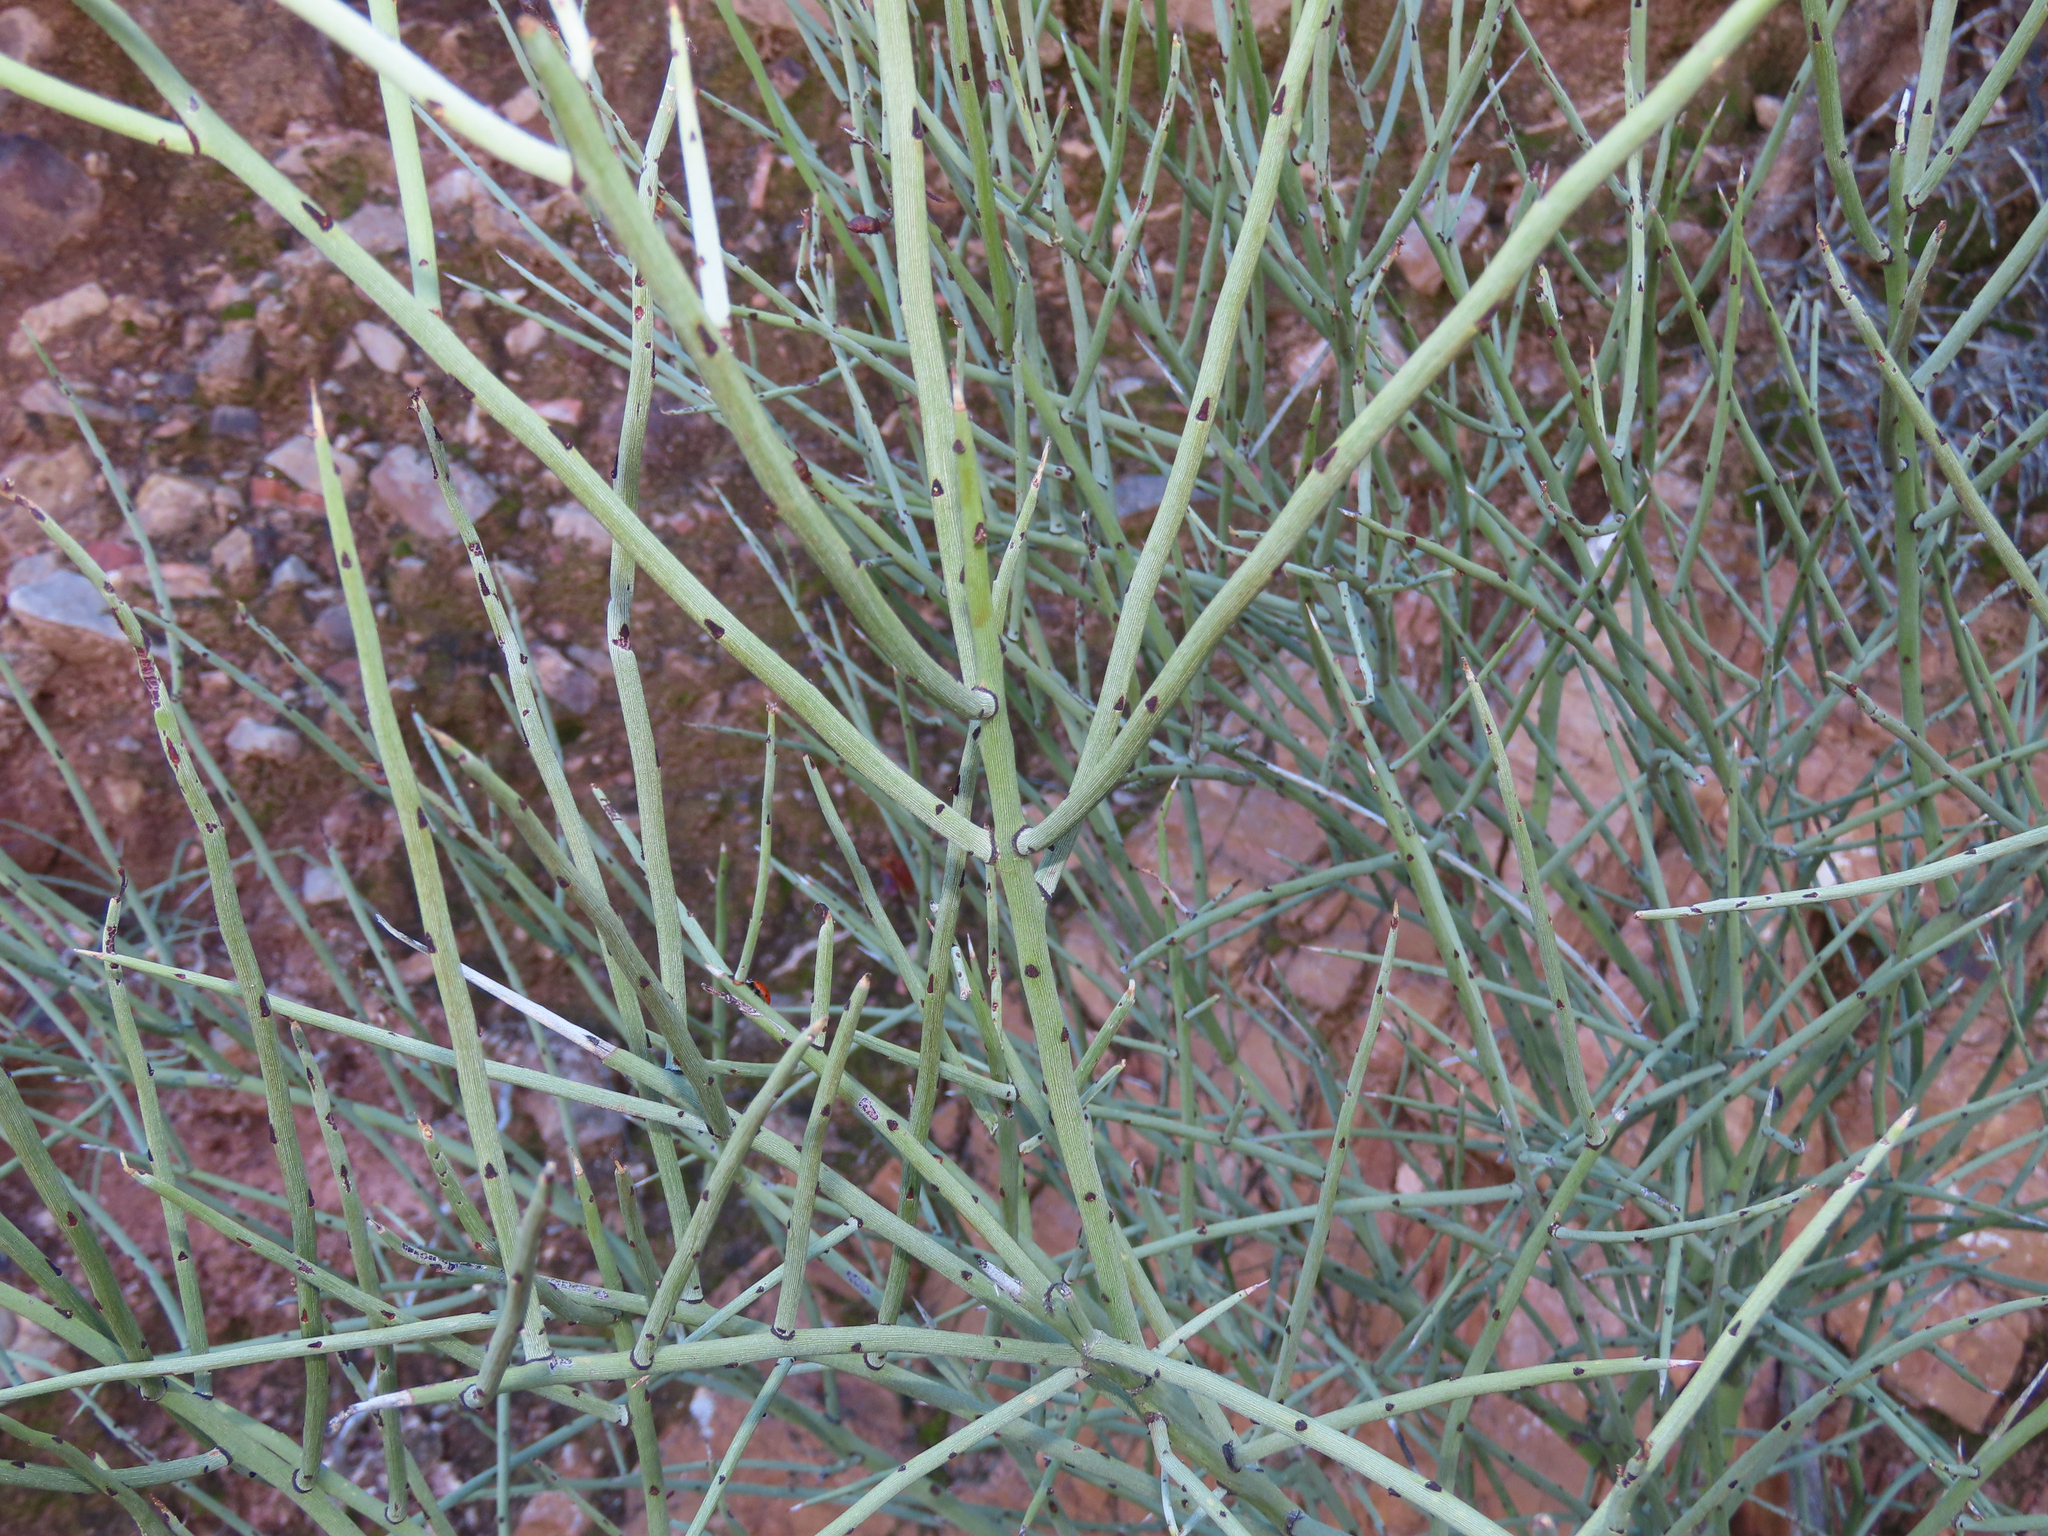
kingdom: Plantae
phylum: Tracheophyta
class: Magnoliopsida
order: Celastrales
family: Celastraceae
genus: Canotia
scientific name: Canotia holacantha
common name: Crucifixion thorns
